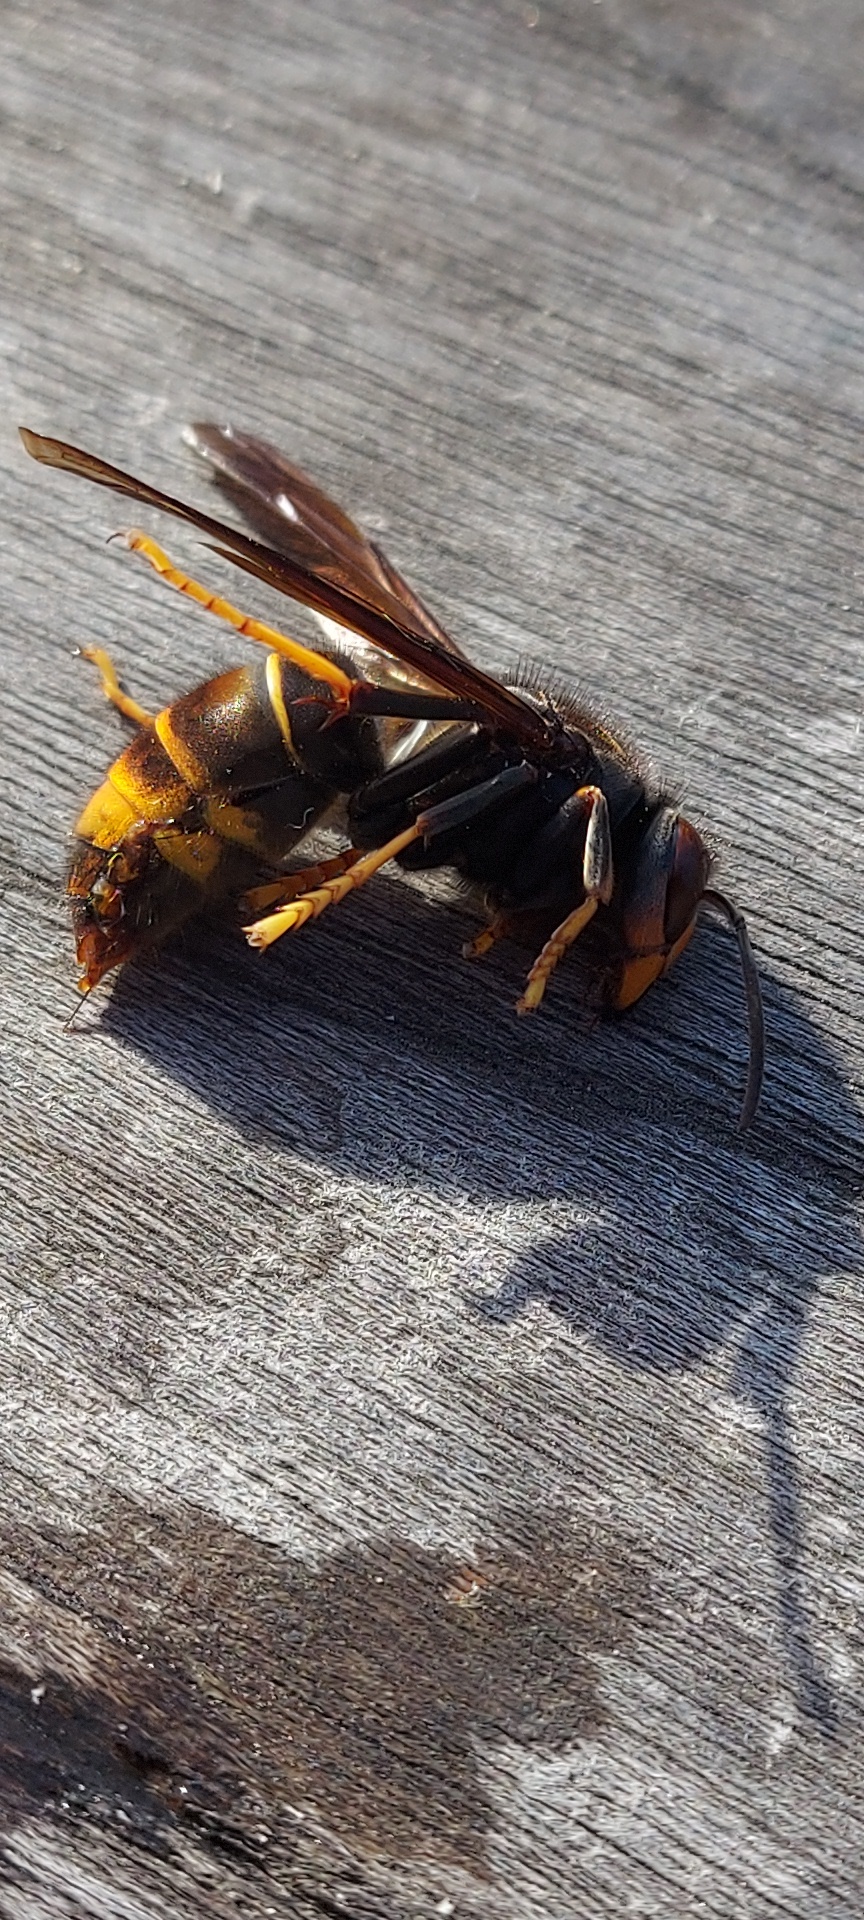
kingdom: Animalia
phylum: Arthropoda
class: Insecta
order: Hymenoptera
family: Vespidae
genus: Vespa
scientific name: Vespa velutina
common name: Asian hornet
